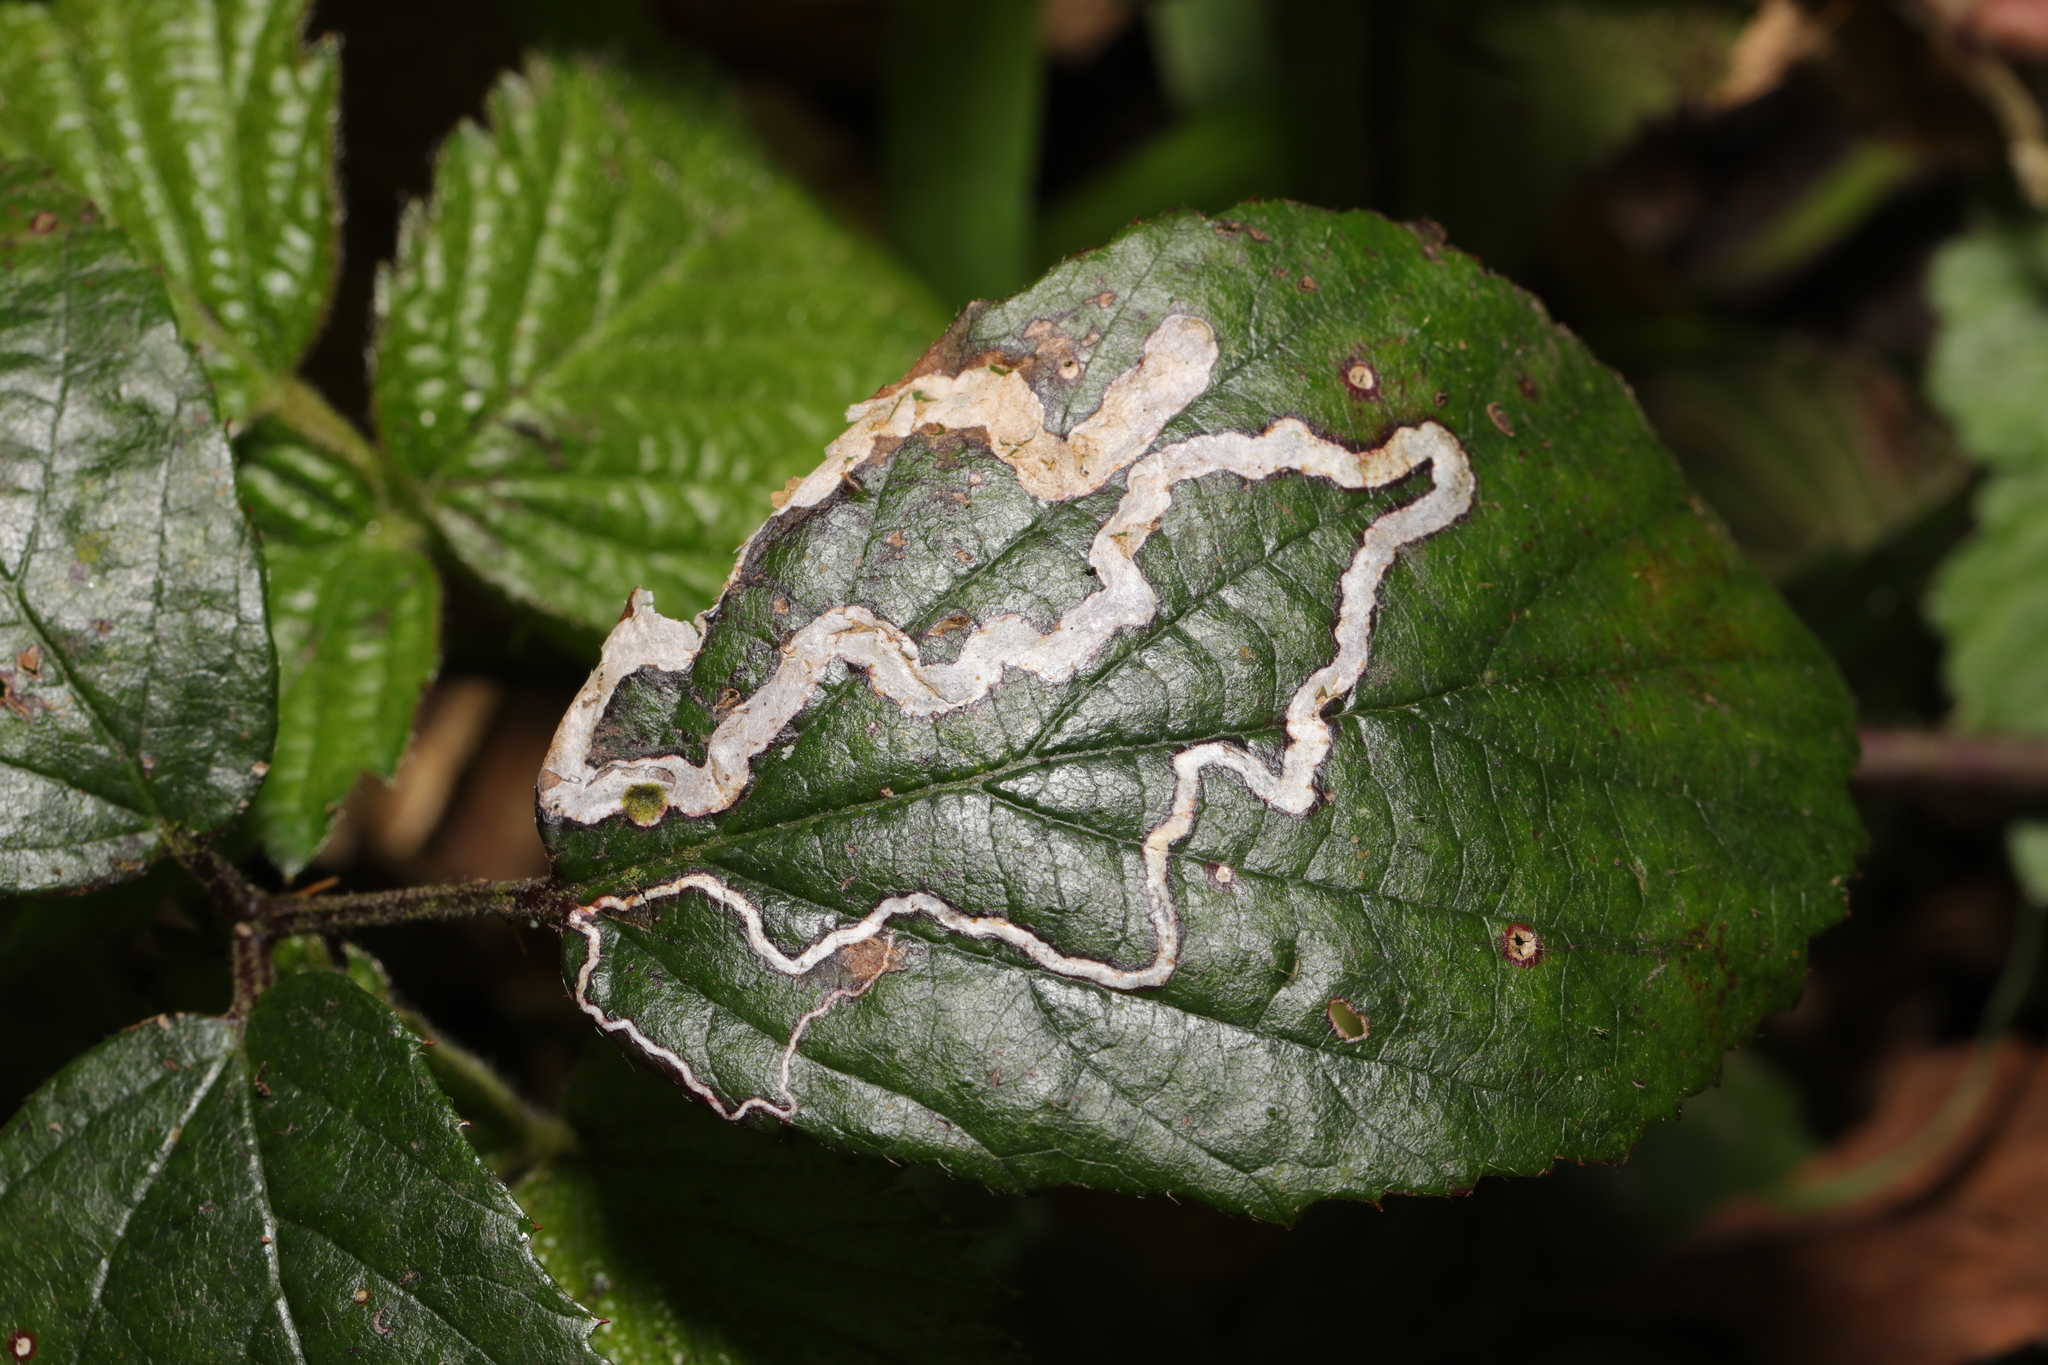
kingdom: Animalia
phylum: Arthropoda
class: Insecta
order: Lepidoptera
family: Nepticulidae
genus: Stigmella
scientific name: Stigmella aurella
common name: Golden pigmy
